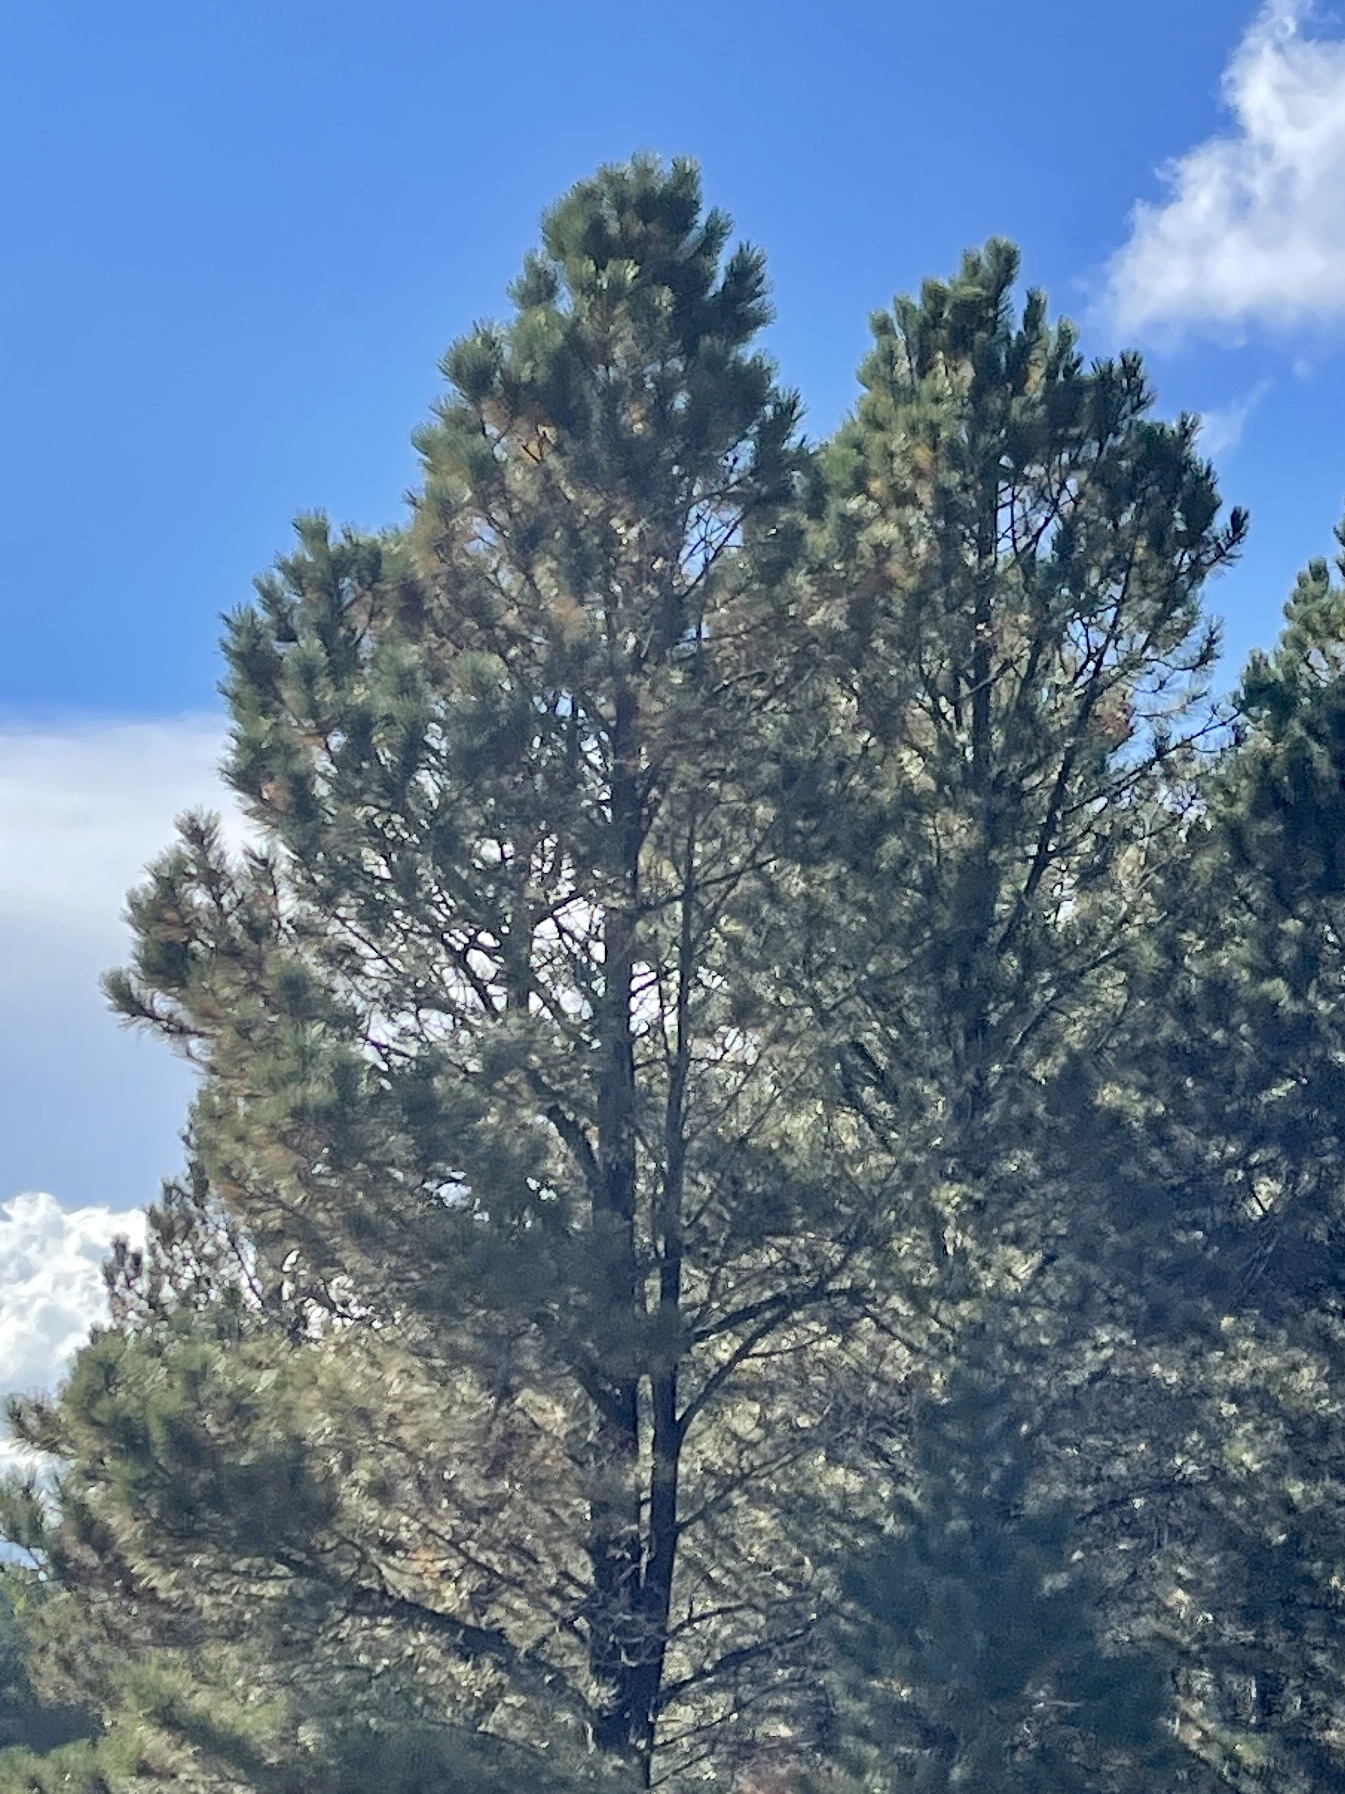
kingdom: Plantae
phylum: Tracheophyta
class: Pinopsida
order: Pinales
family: Pinaceae
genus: Pinus
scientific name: Pinus ponderosa
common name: Western yellow-pine
